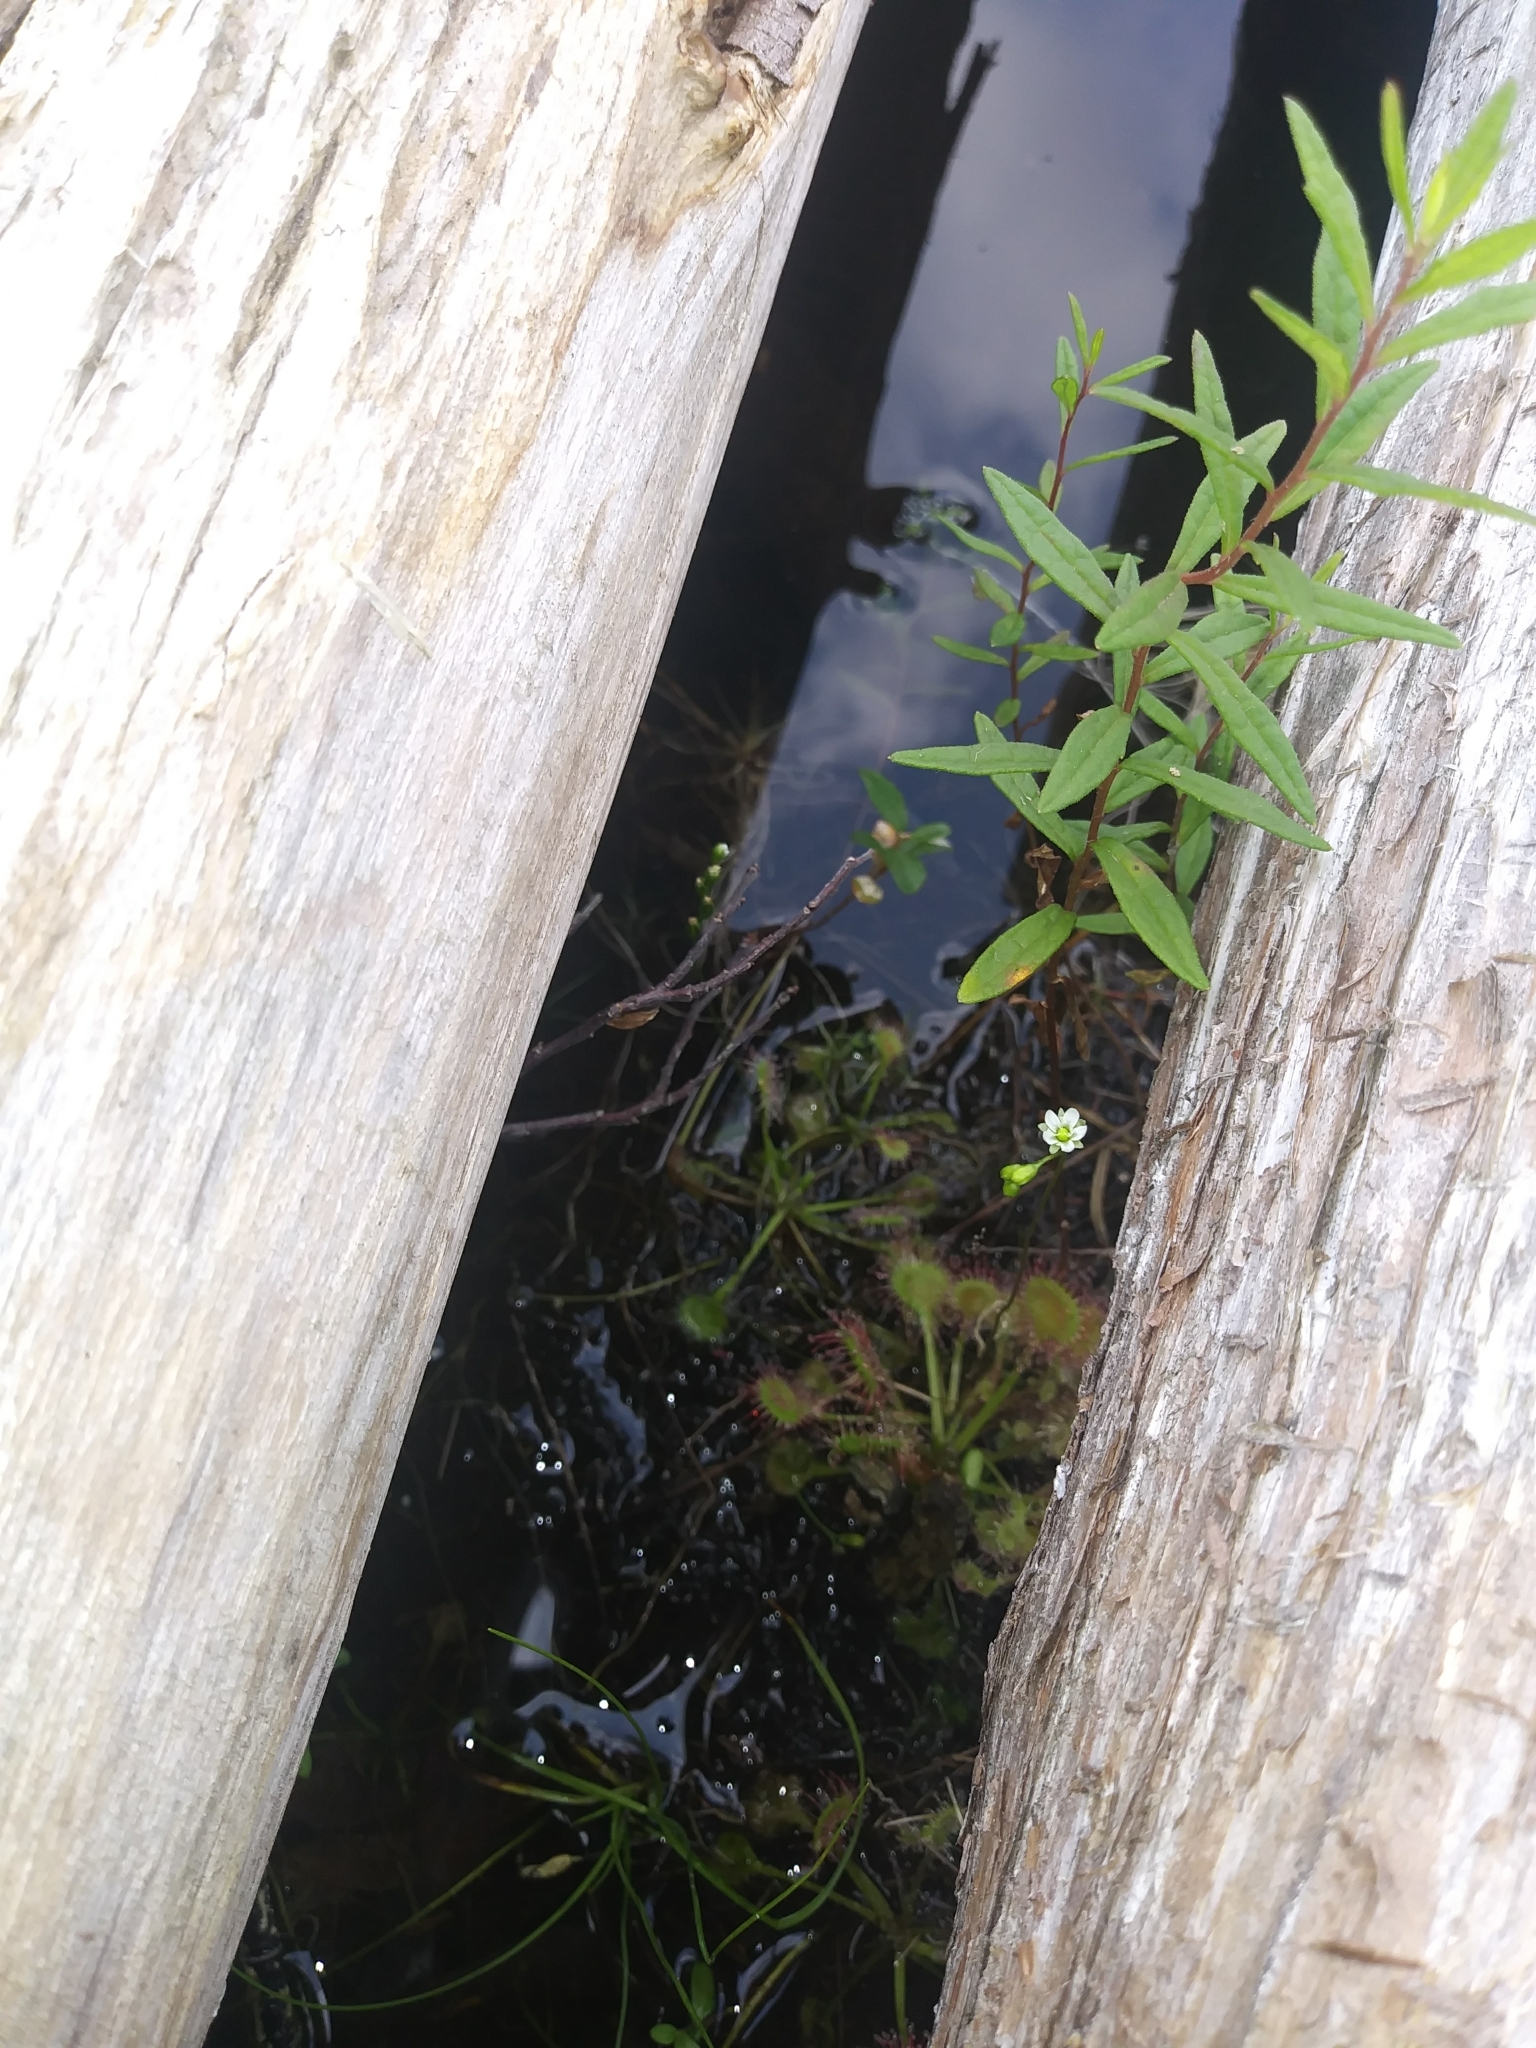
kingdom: Plantae
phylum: Tracheophyta
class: Magnoliopsida
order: Caryophyllales
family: Droseraceae
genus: Drosera
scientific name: Drosera rotundifolia
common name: Round-leaved sundew
